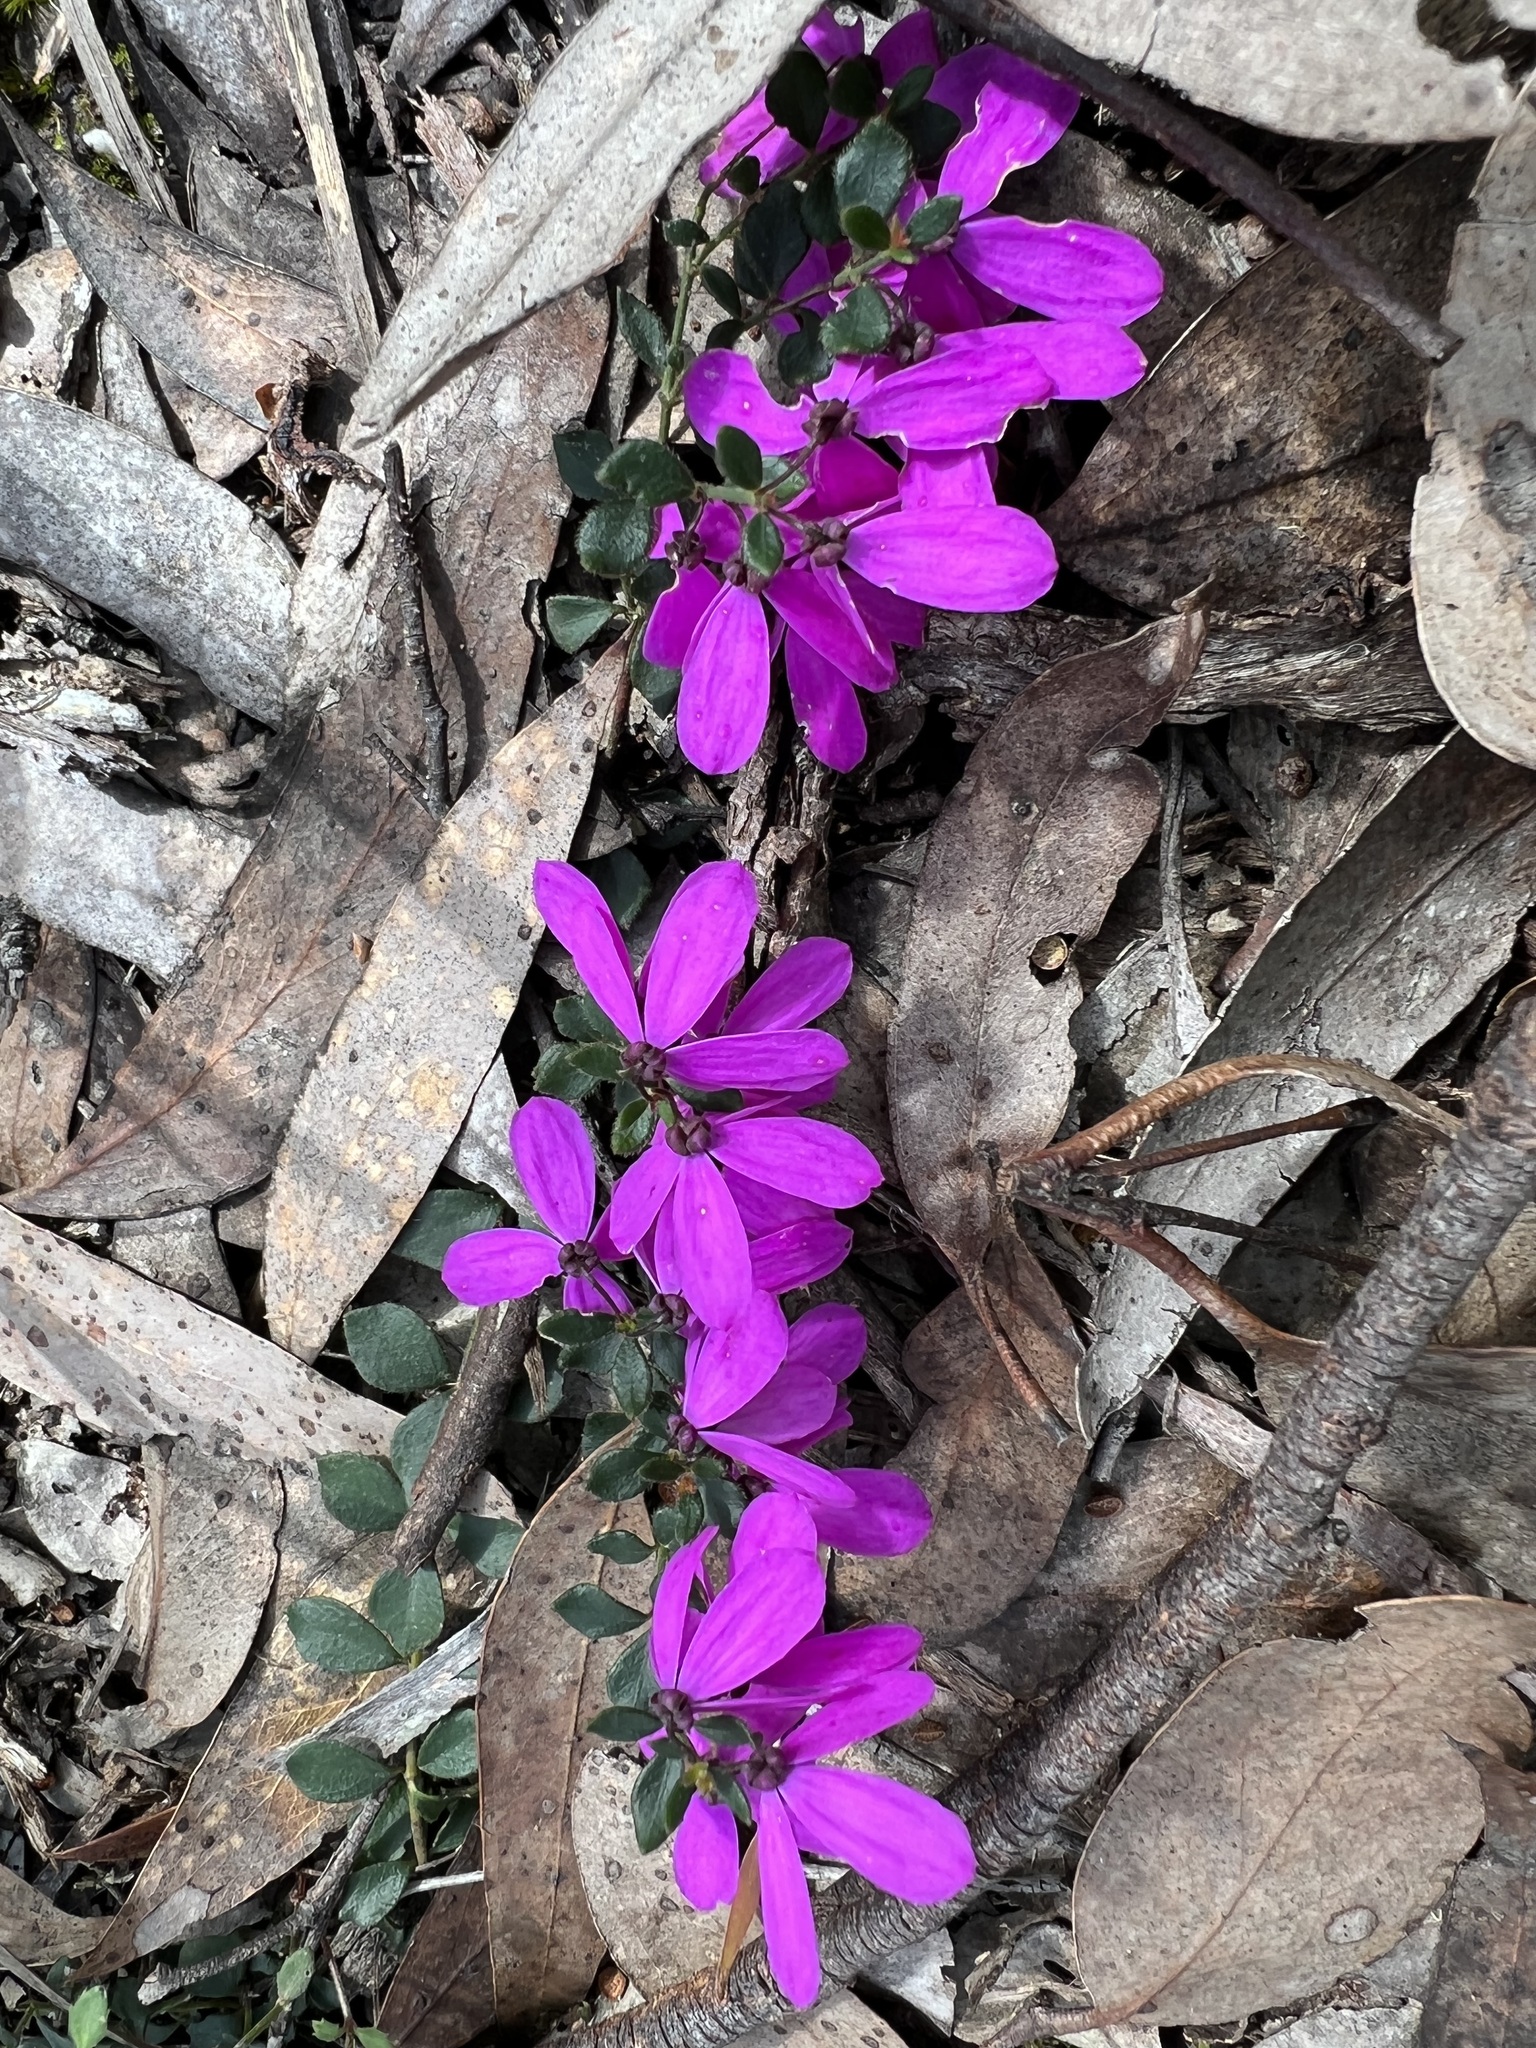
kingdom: Plantae
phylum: Tracheophyta
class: Magnoliopsida
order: Oxalidales
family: Elaeocarpaceae
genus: Tetratheca
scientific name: Tetratheca ciliata
